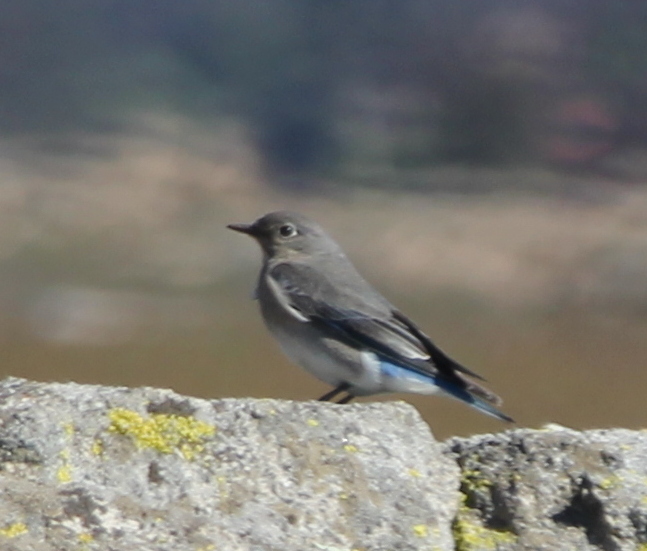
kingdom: Animalia
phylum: Chordata
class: Aves
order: Passeriformes
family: Turdidae
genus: Sialia
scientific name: Sialia currucoides
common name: Mountain bluebird
